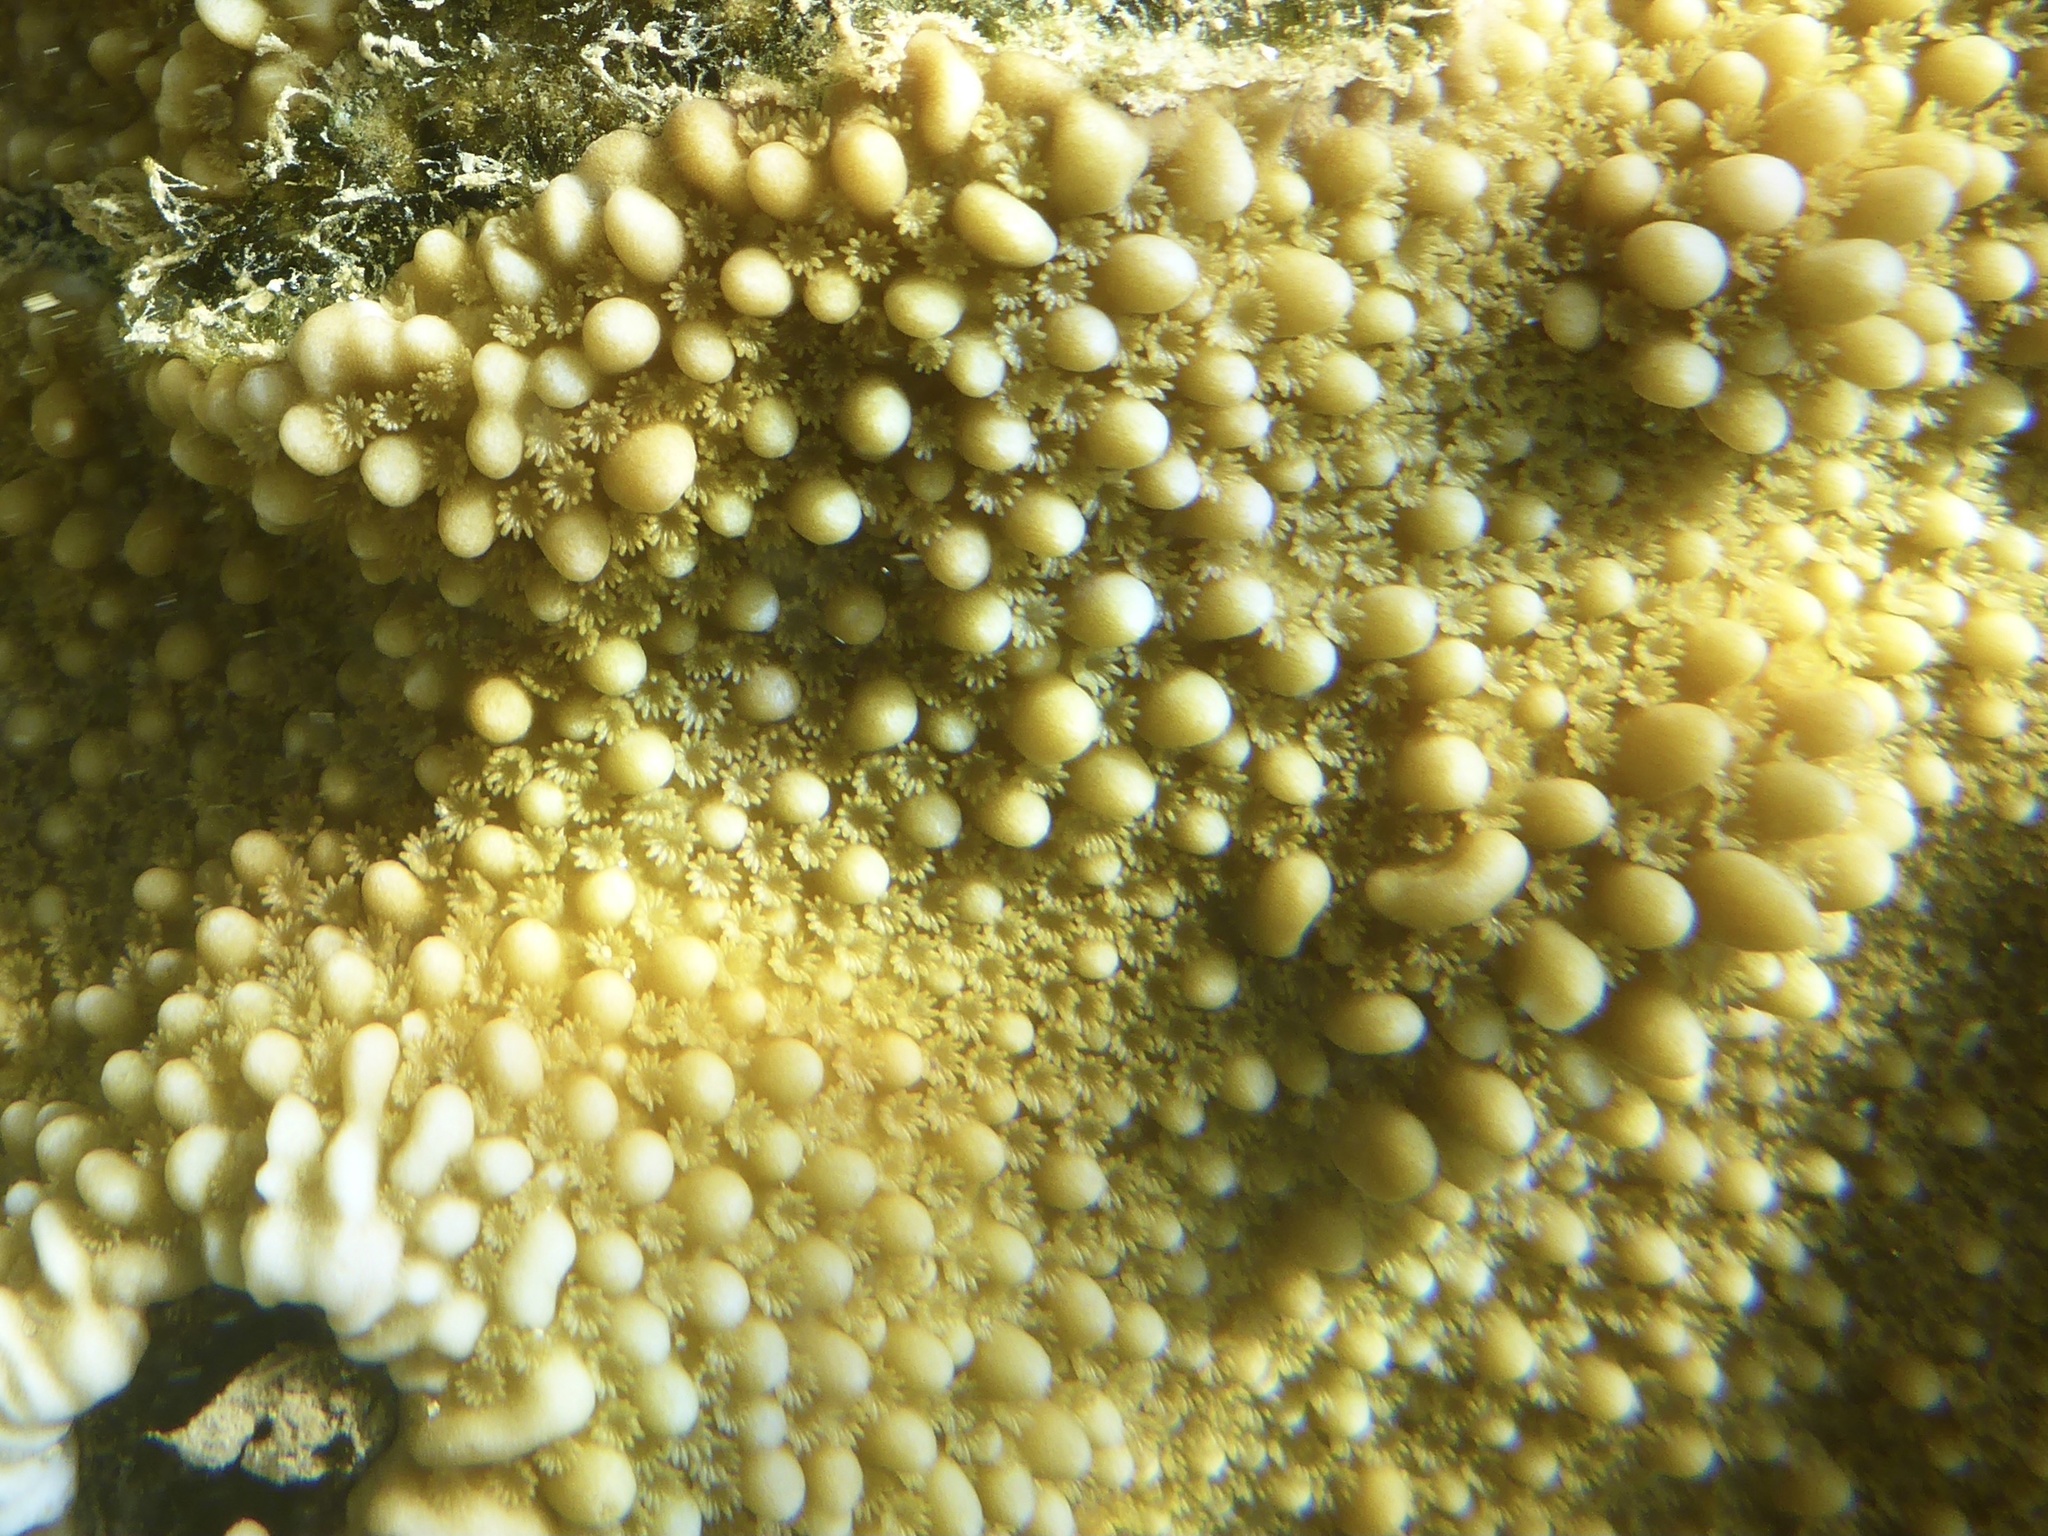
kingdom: Animalia
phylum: Cnidaria
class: Anthozoa
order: Scleractinia
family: Acroporidae
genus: Montipora
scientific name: Montipora capitata
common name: Pore coral
